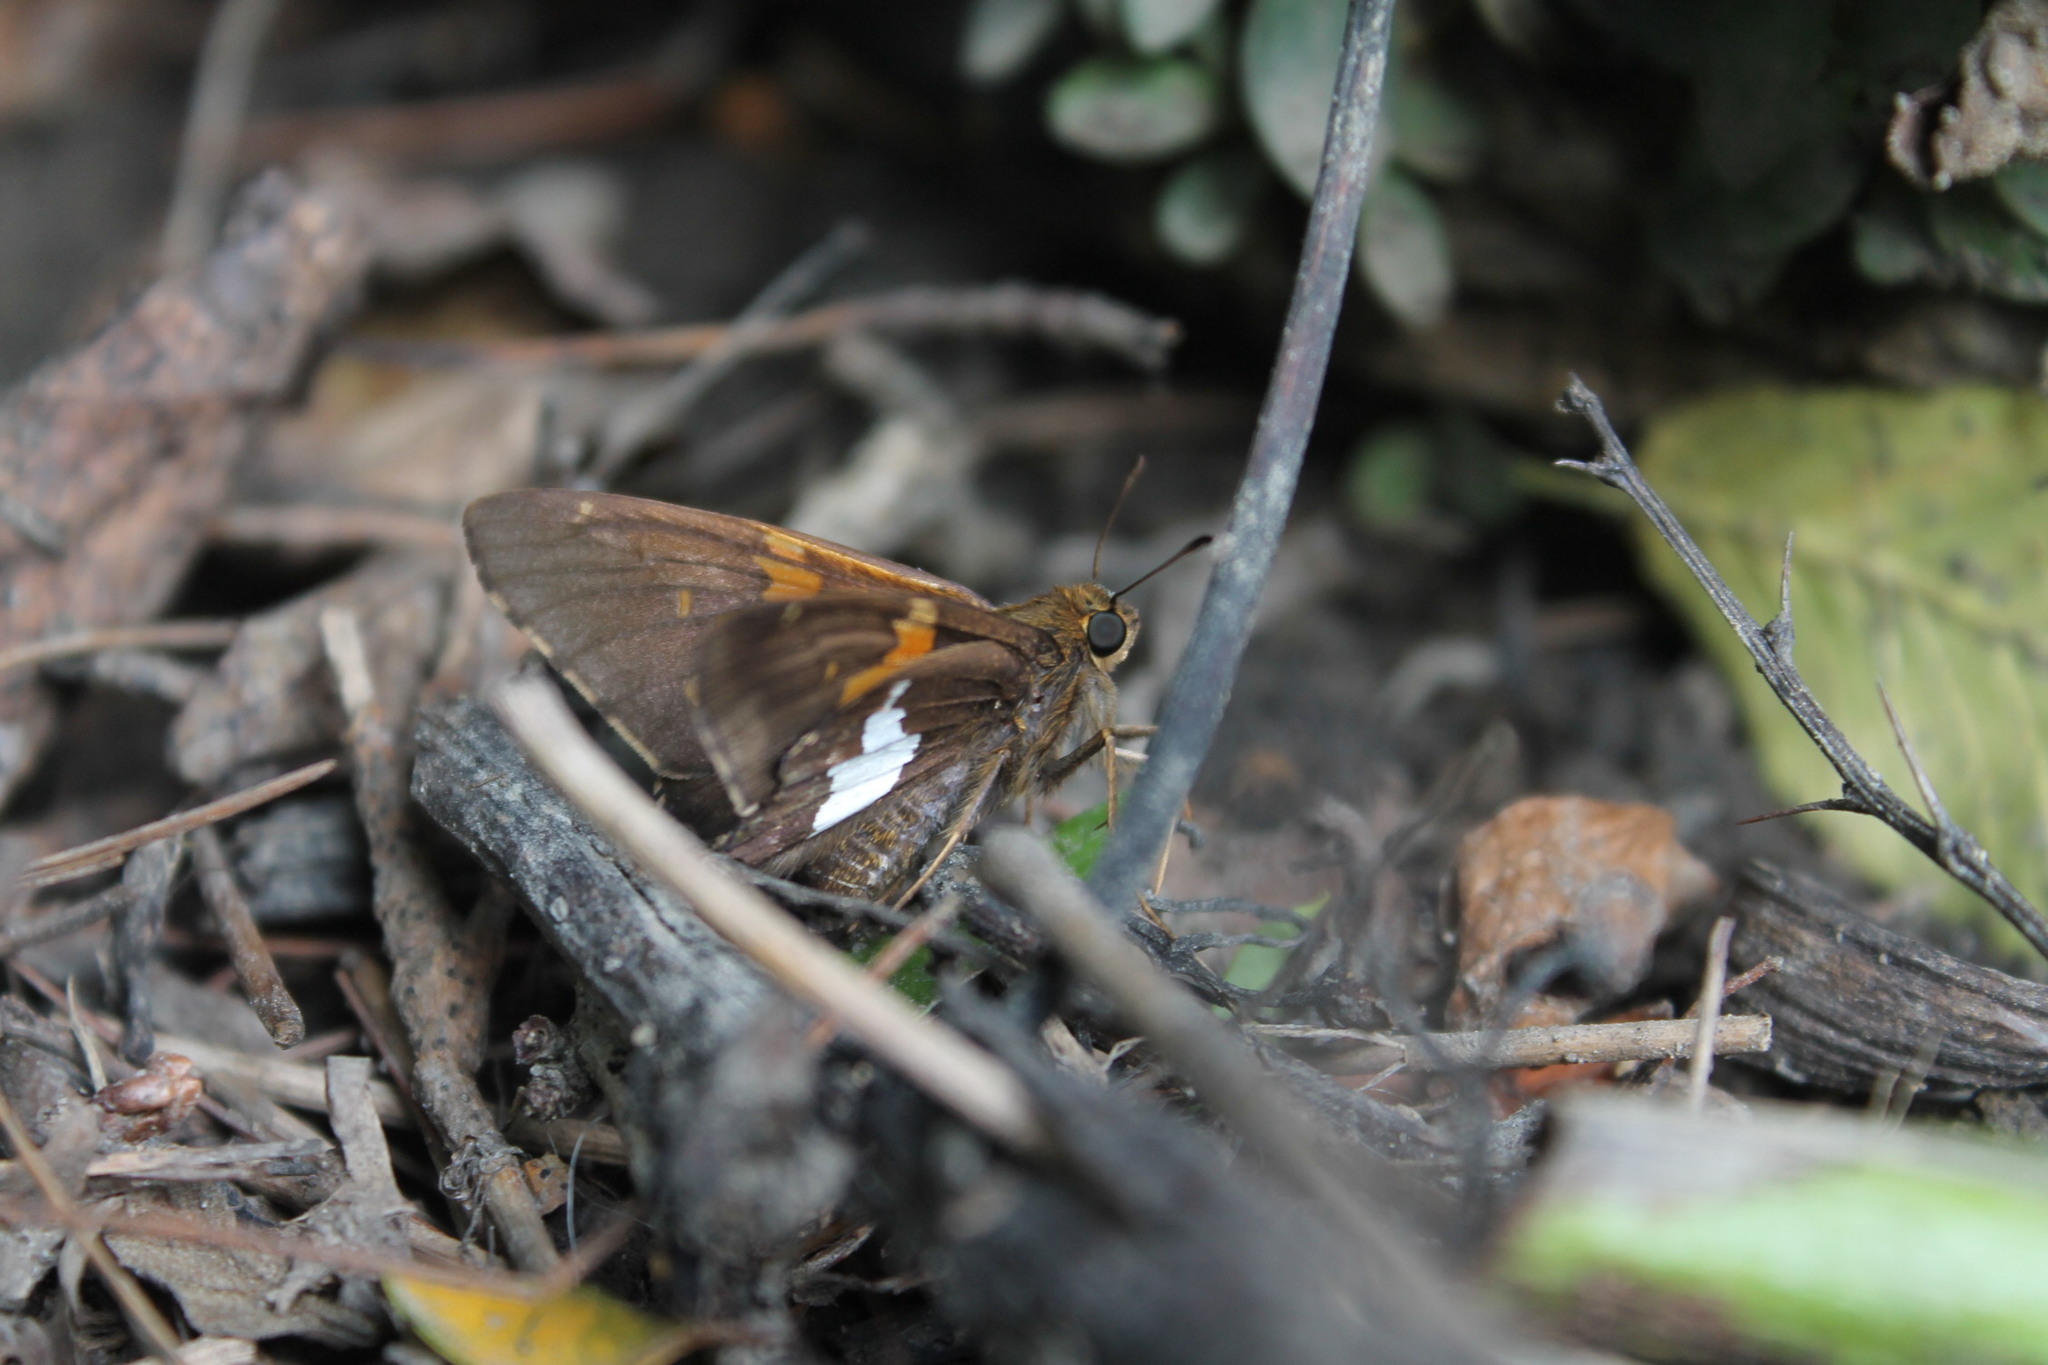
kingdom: Animalia
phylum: Arthropoda
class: Insecta
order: Lepidoptera
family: Hesperiidae
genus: Epargyreus
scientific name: Epargyreus clarus
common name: Silver-spotted skipper
